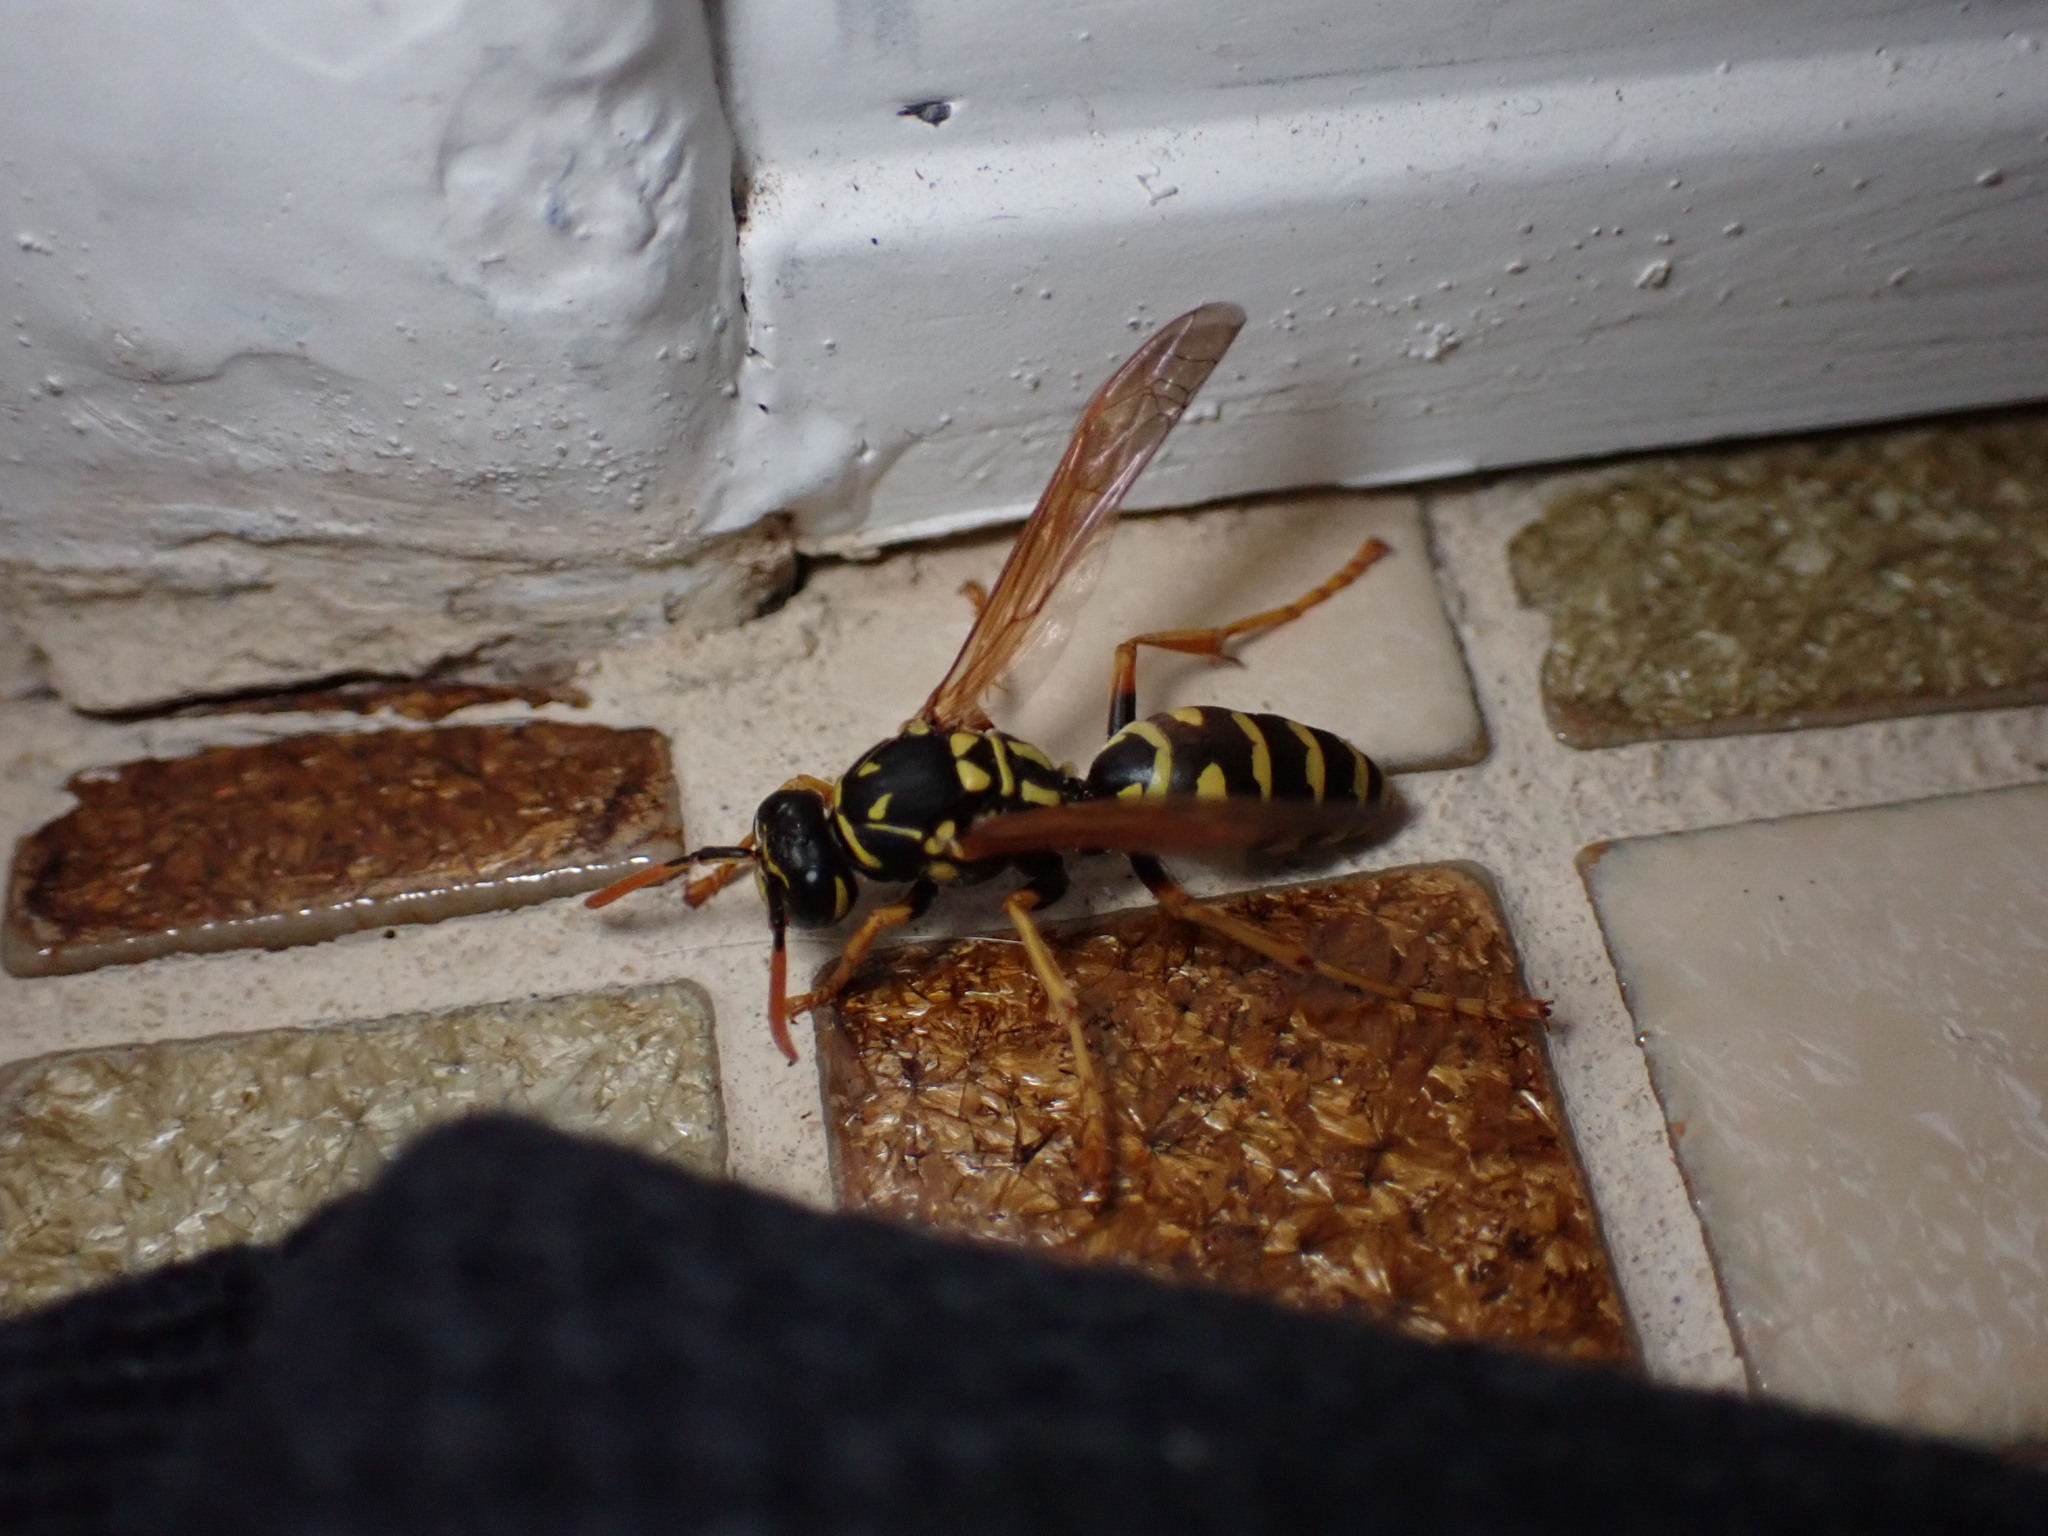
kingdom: Animalia
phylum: Arthropoda
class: Insecta
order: Hymenoptera
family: Eumenidae
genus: Polistes
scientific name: Polistes dominula
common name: Paper wasp
